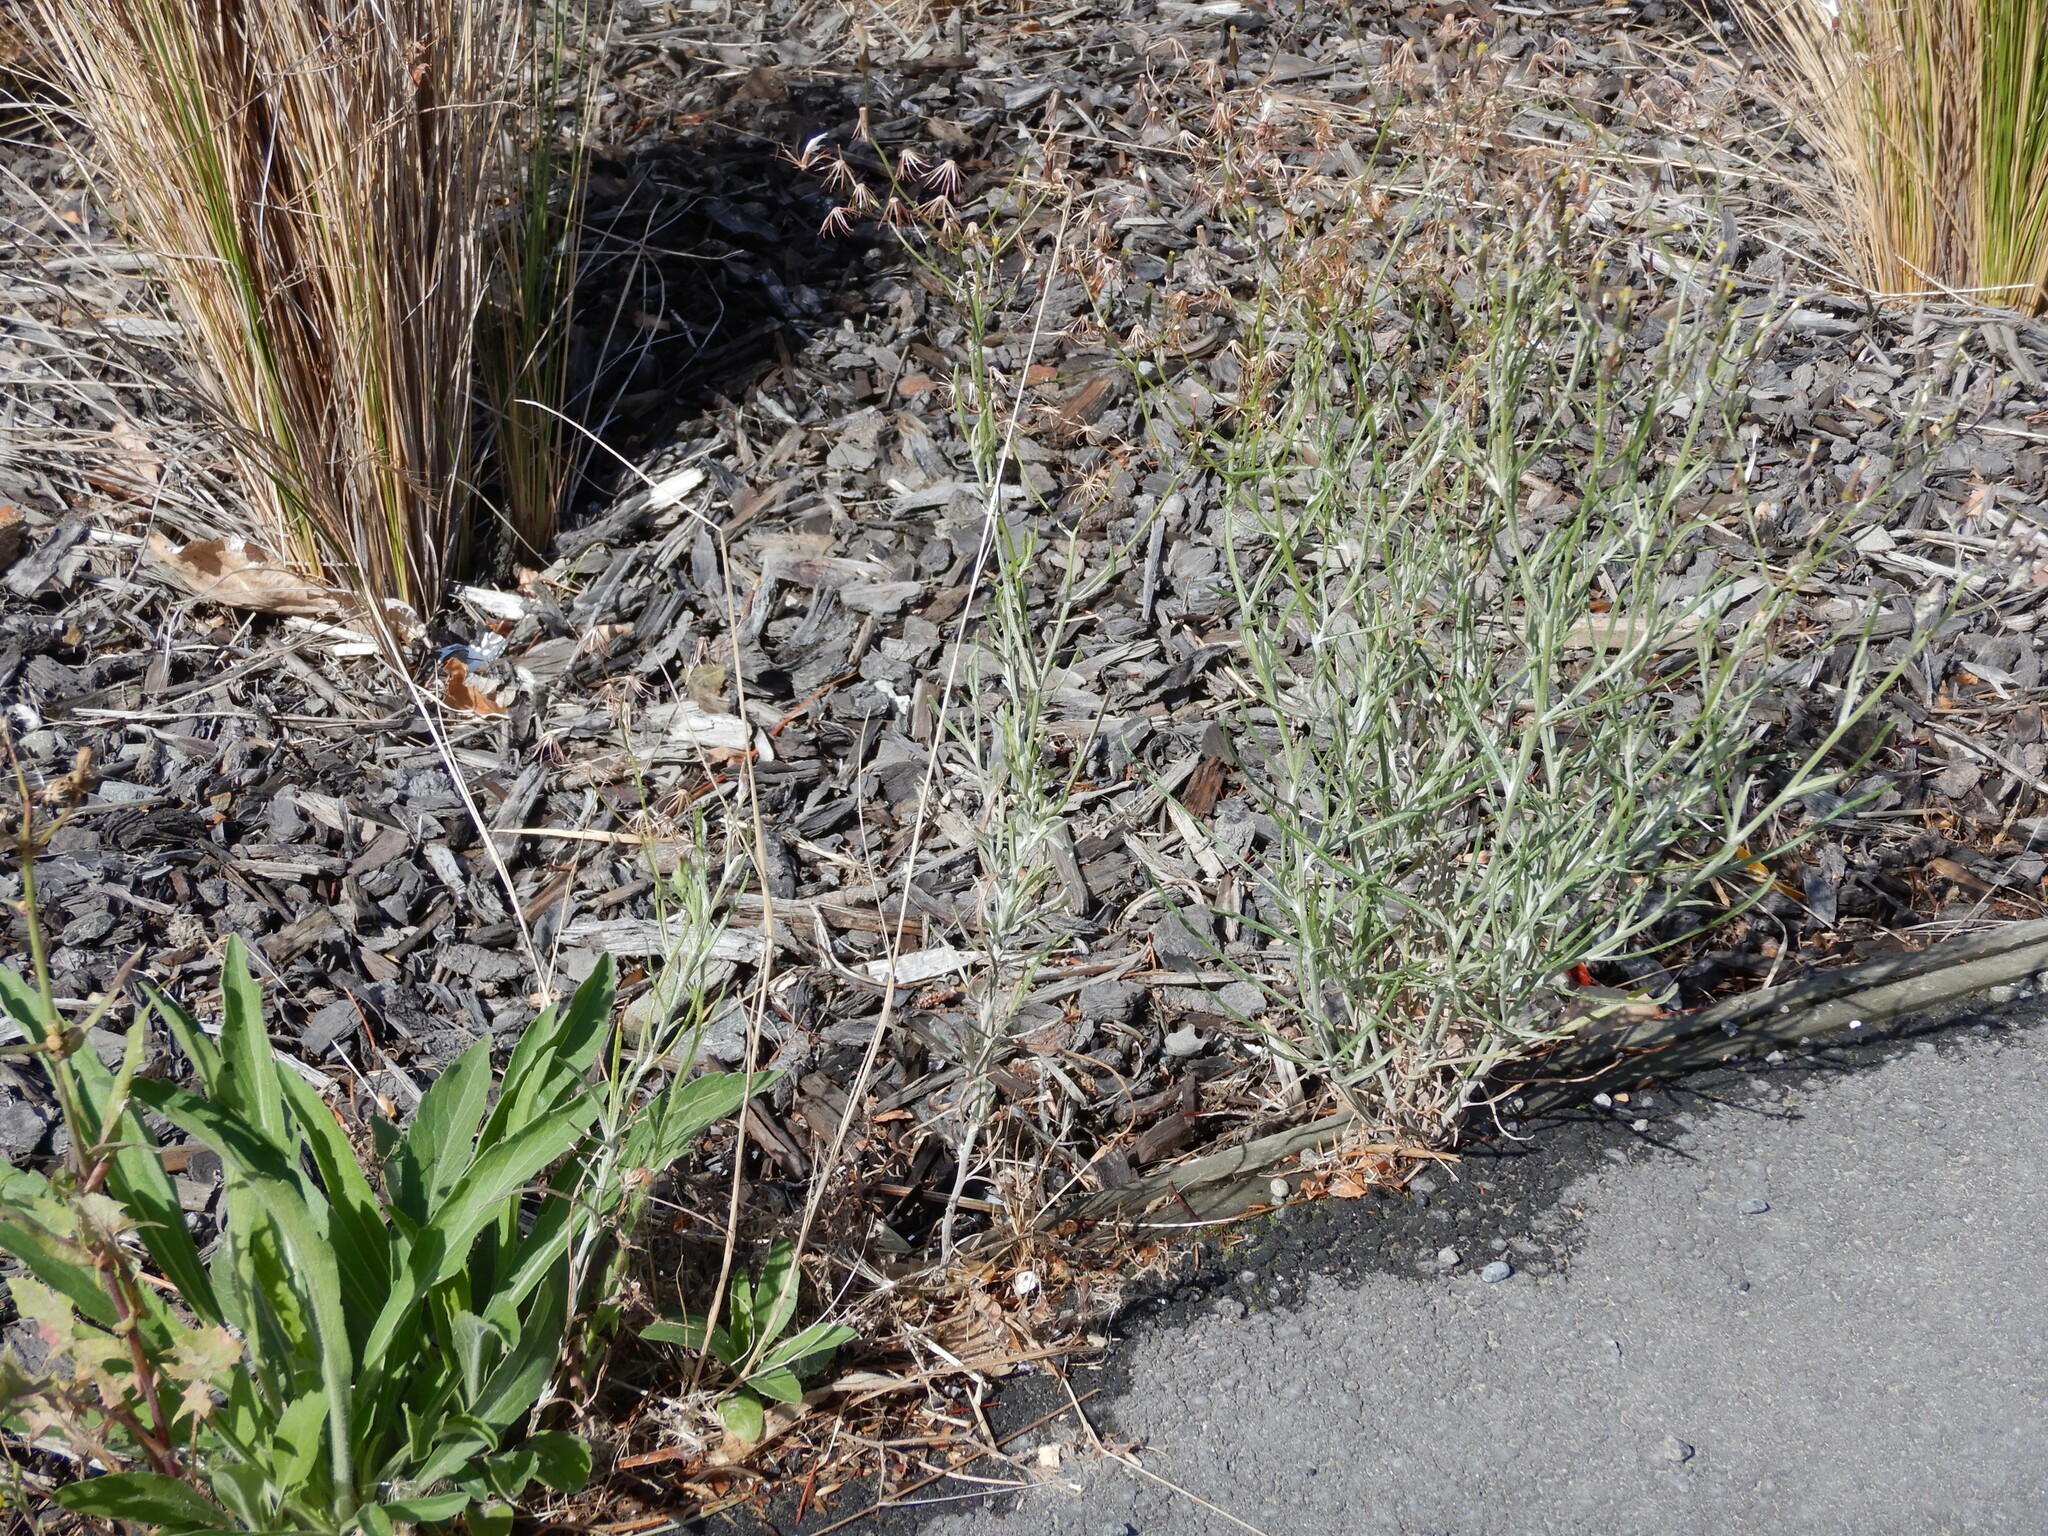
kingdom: Plantae
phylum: Tracheophyta
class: Magnoliopsida
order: Asterales
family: Asteraceae
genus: Senecio
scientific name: Senecio quadridentatus
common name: Cotton fireweed
